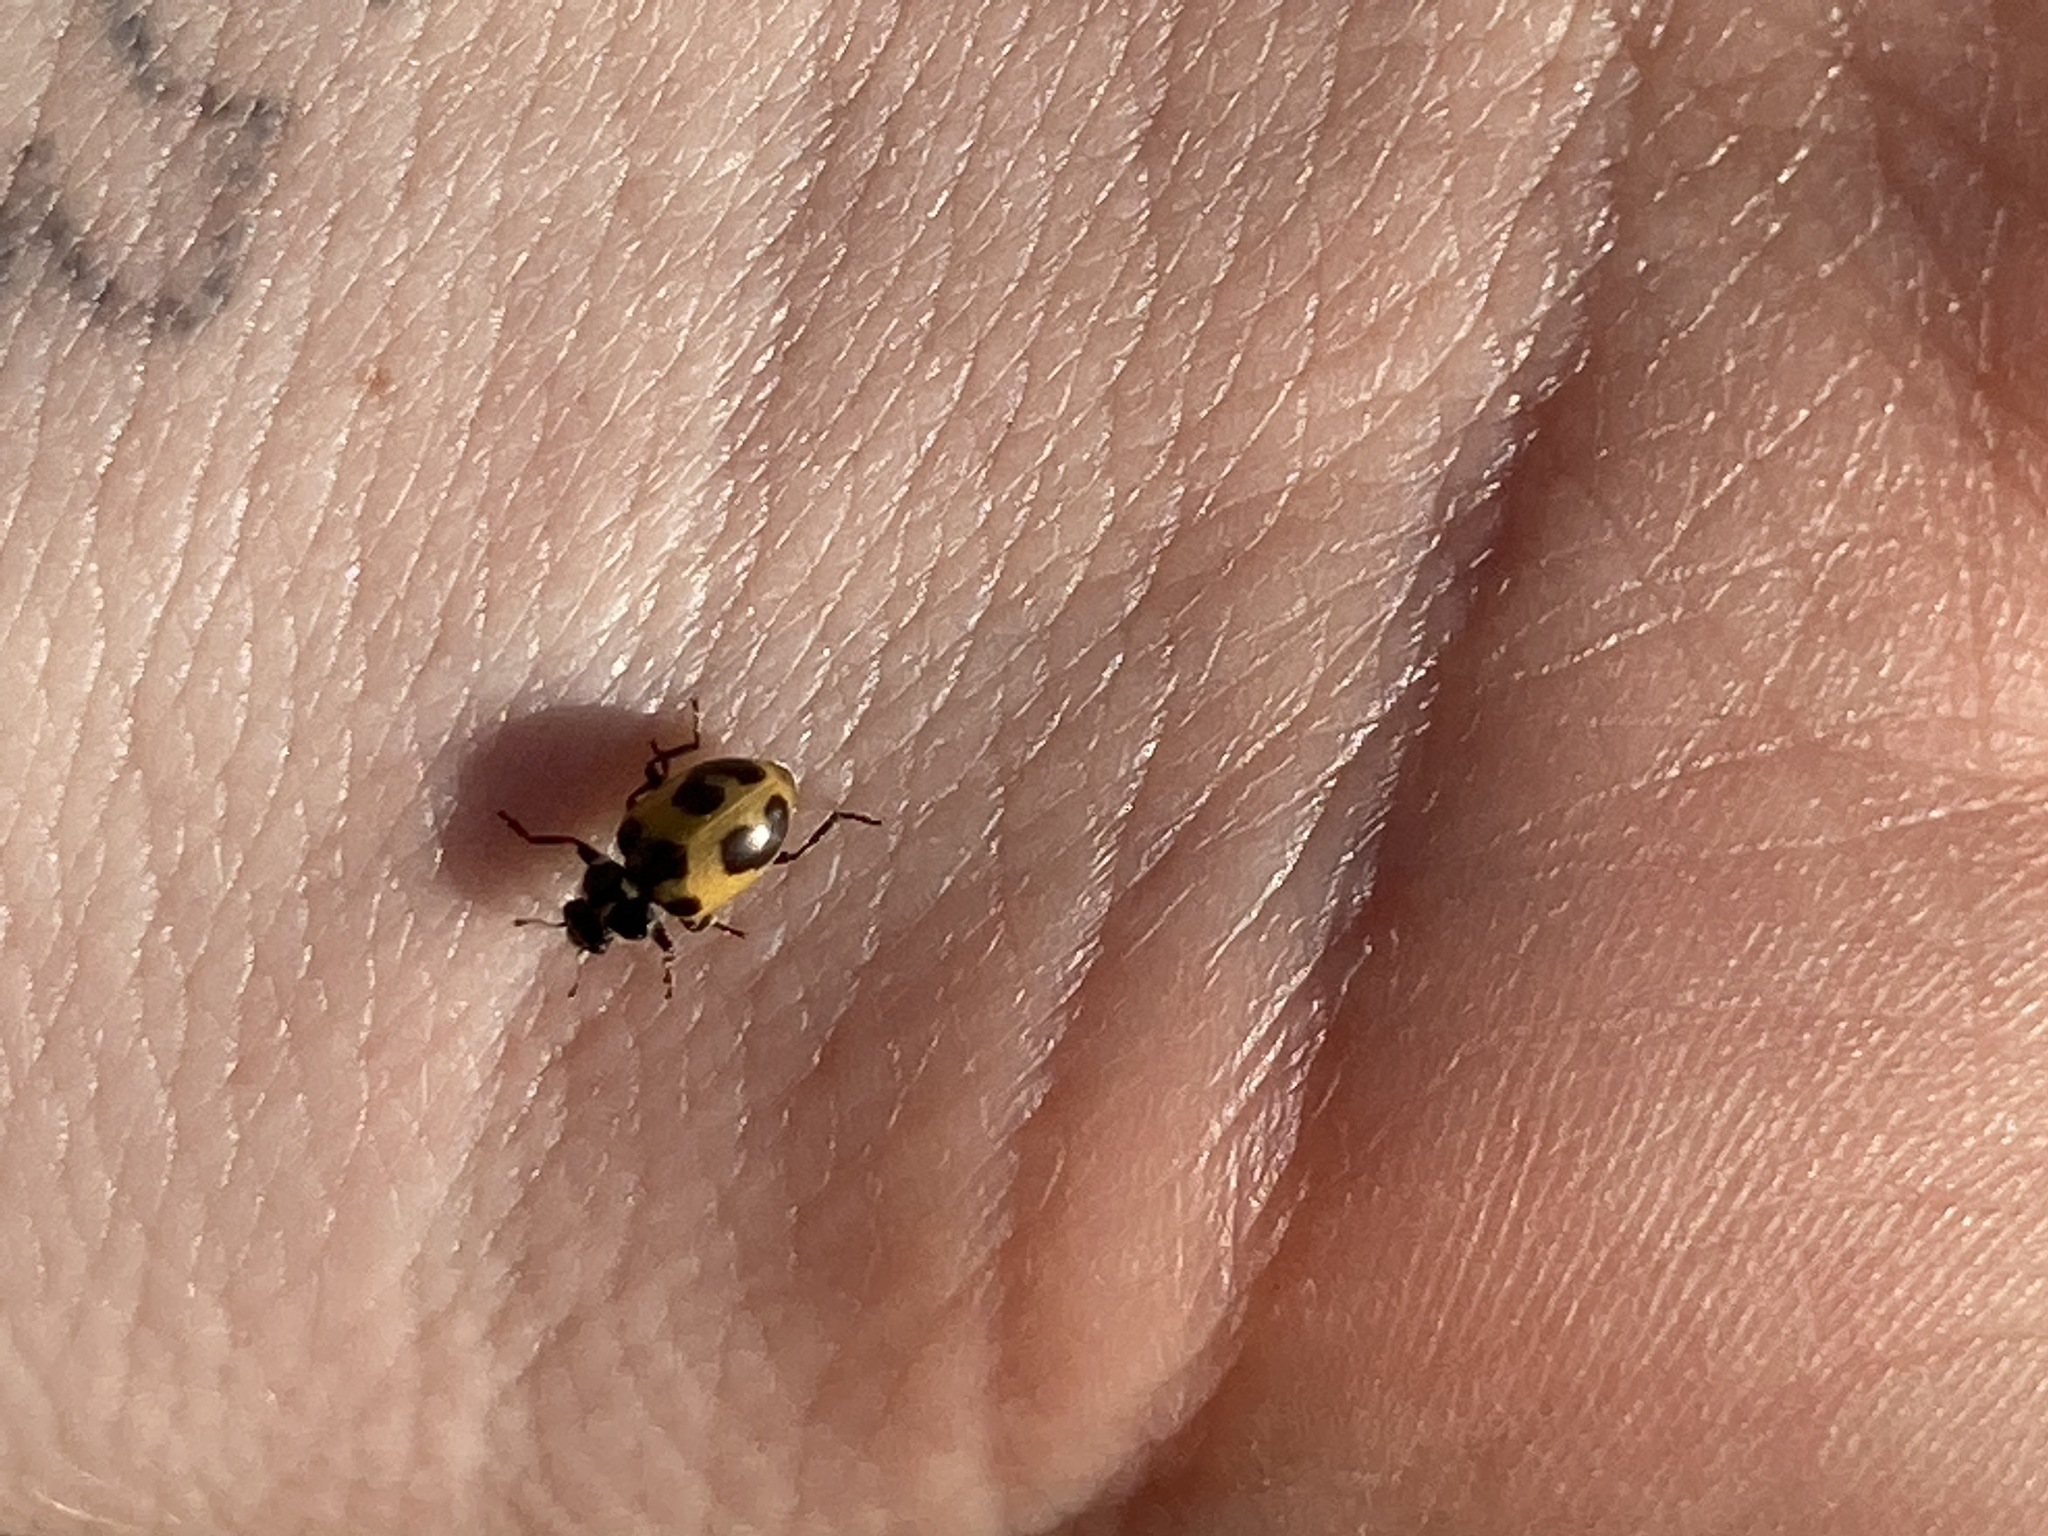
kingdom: Animalia
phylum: Arthropoda
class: Insecta
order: Coleoptera
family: Coccinellidae
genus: Hippodamia
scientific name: Hippodamia parenthesis
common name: Parenthesis lady beetle
